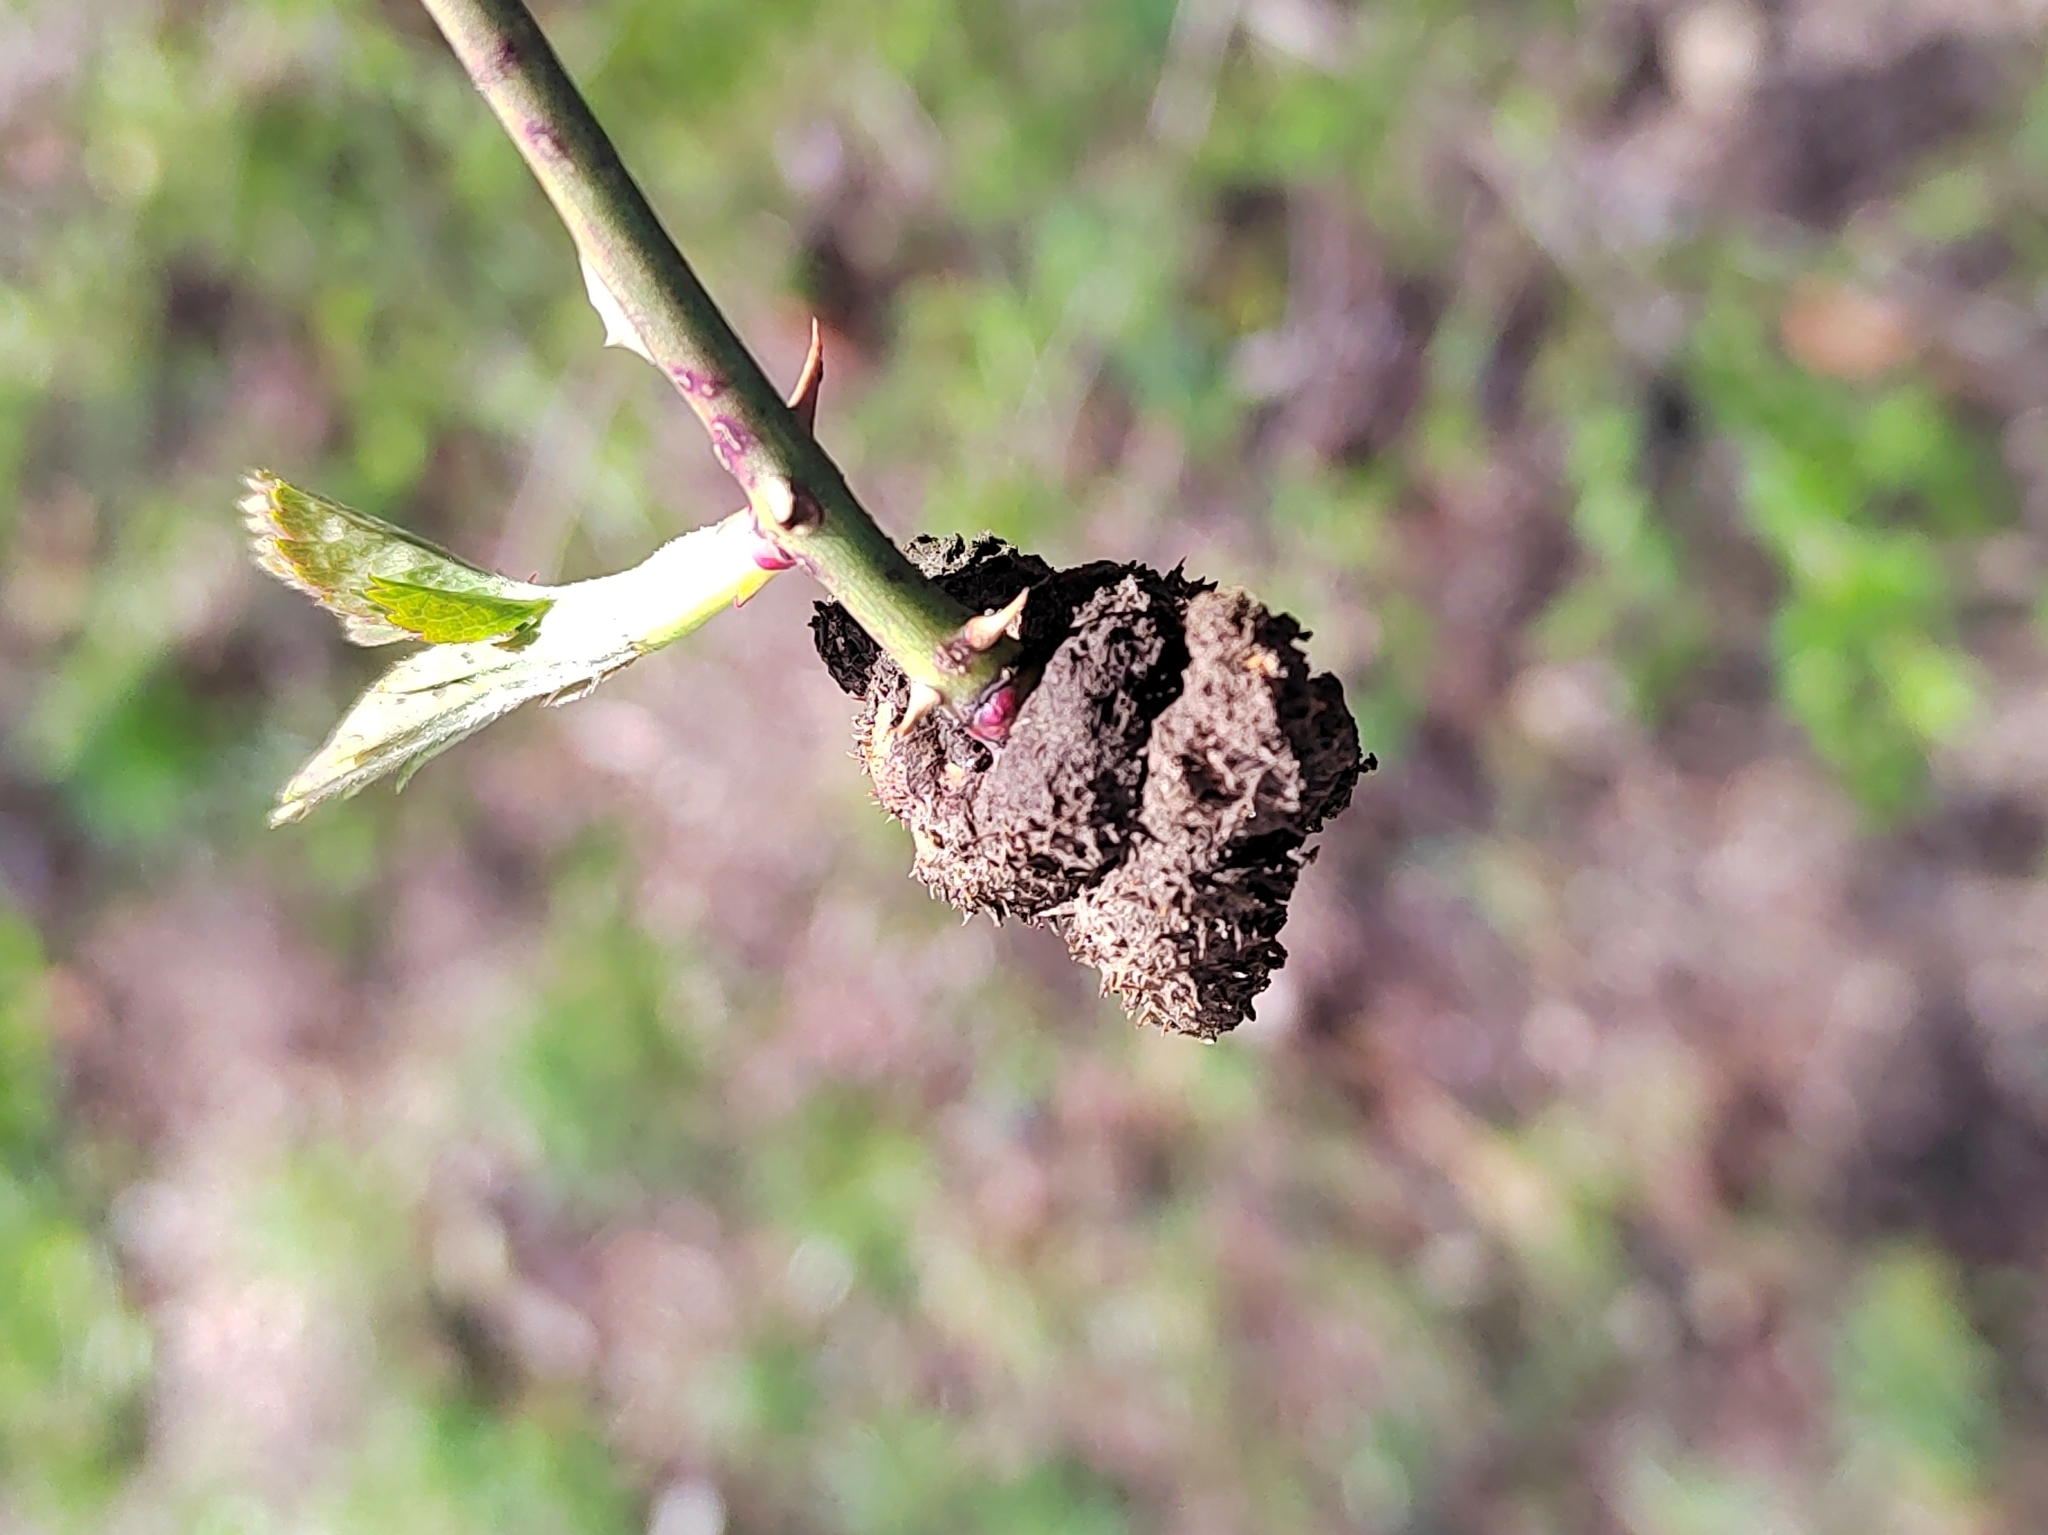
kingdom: Animalia
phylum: Arthropoda
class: Insecta
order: Hymenoptera
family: Cynipidae
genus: Diplolepis
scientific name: Diplolepis mayri
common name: Gall wasp
